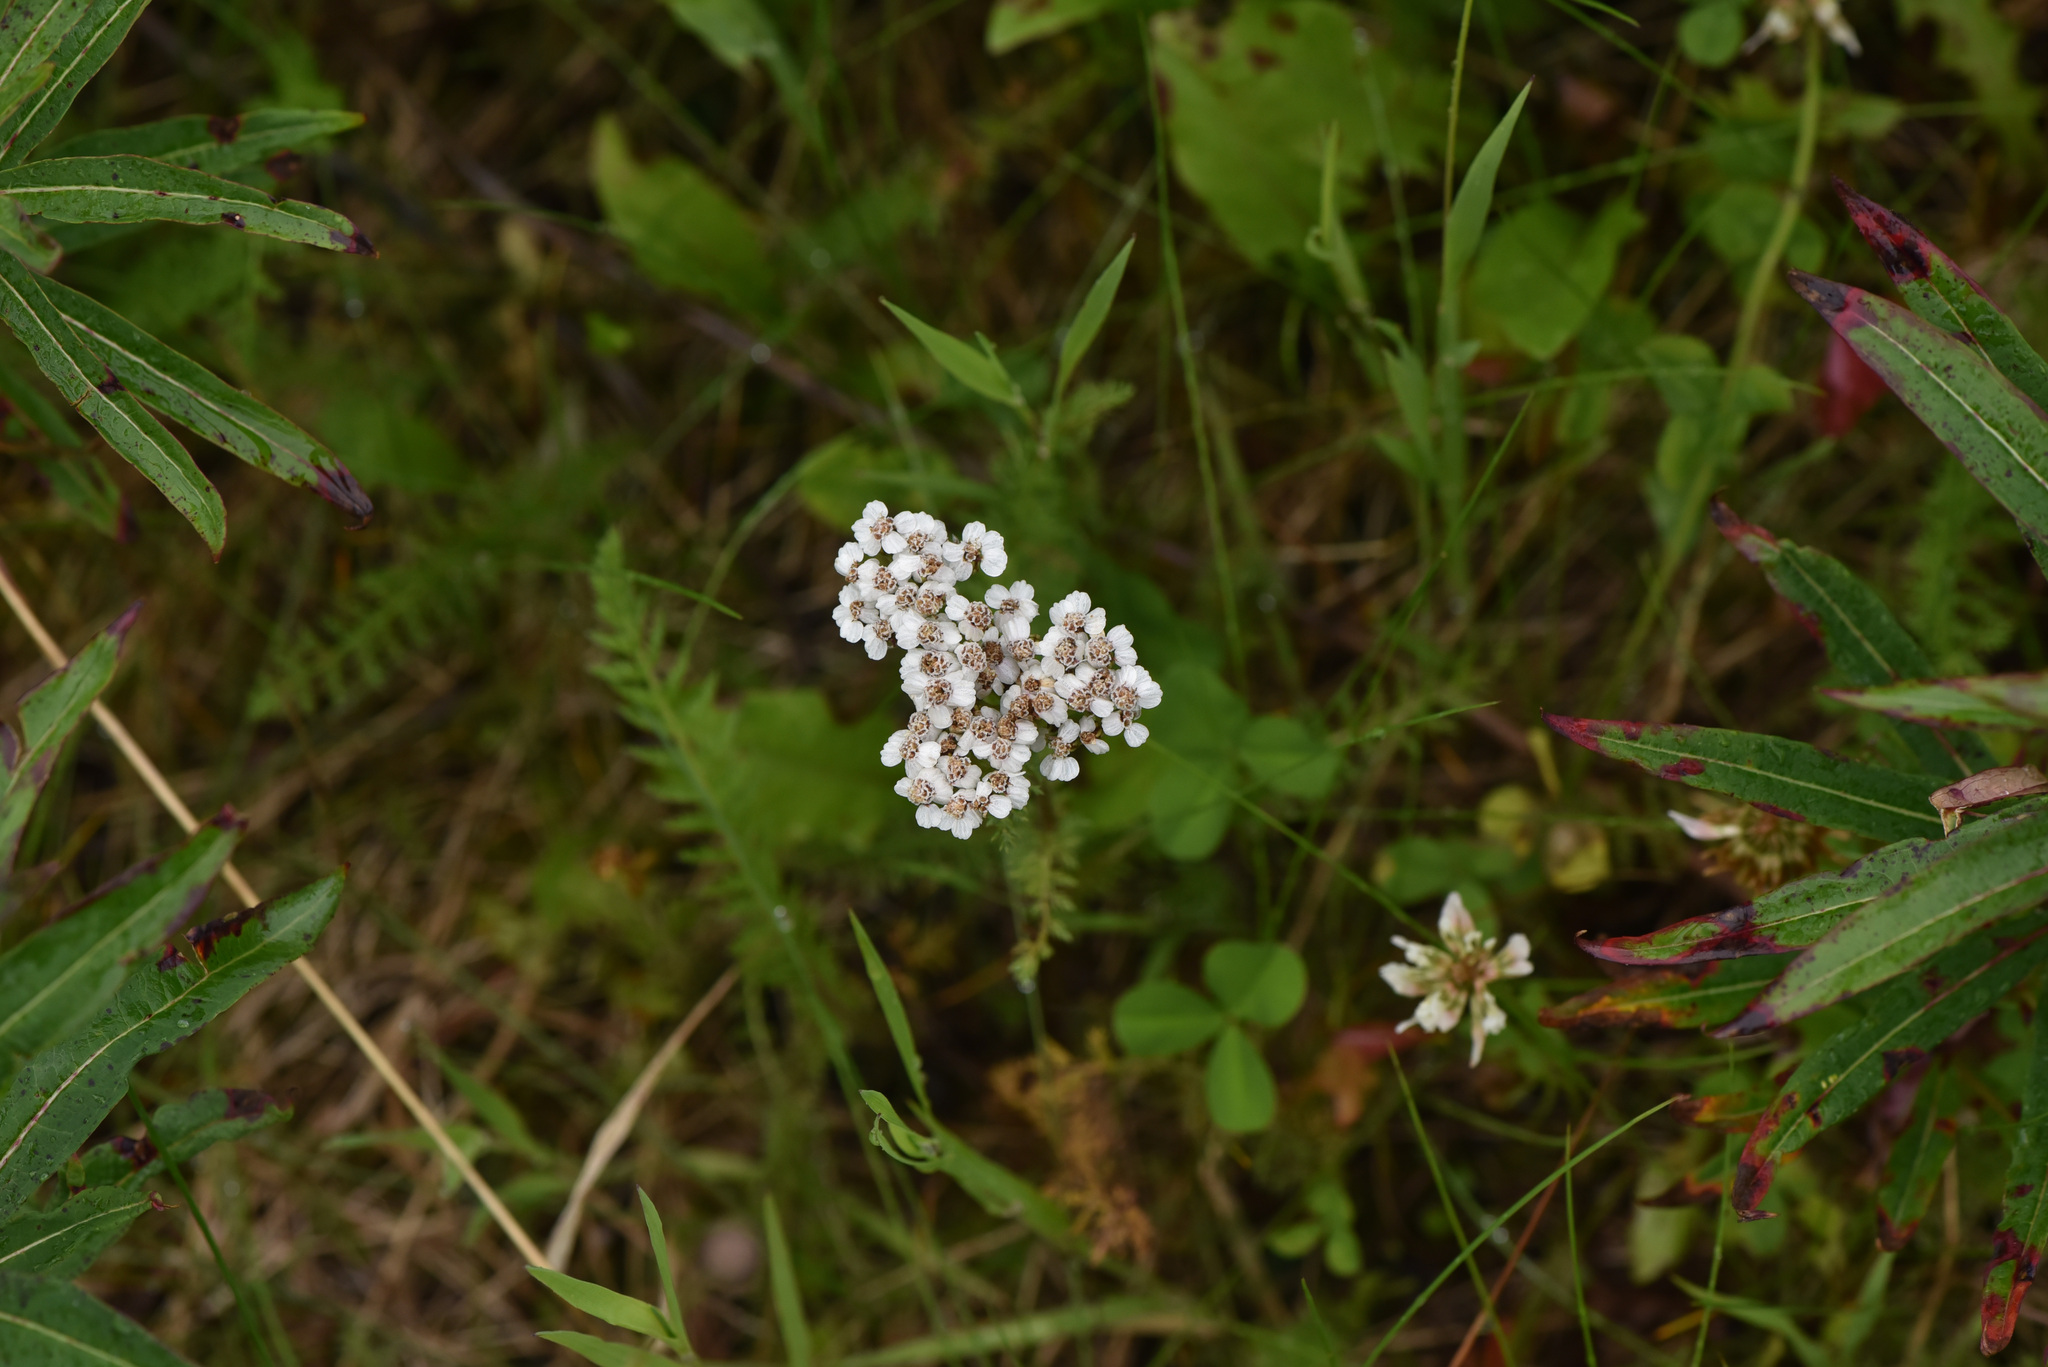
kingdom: Plantae
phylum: Tracheophyta
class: Magnoliopsida
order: Asterales
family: Asteraceae
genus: Achillea
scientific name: Achillea millefolium
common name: Yarrow
